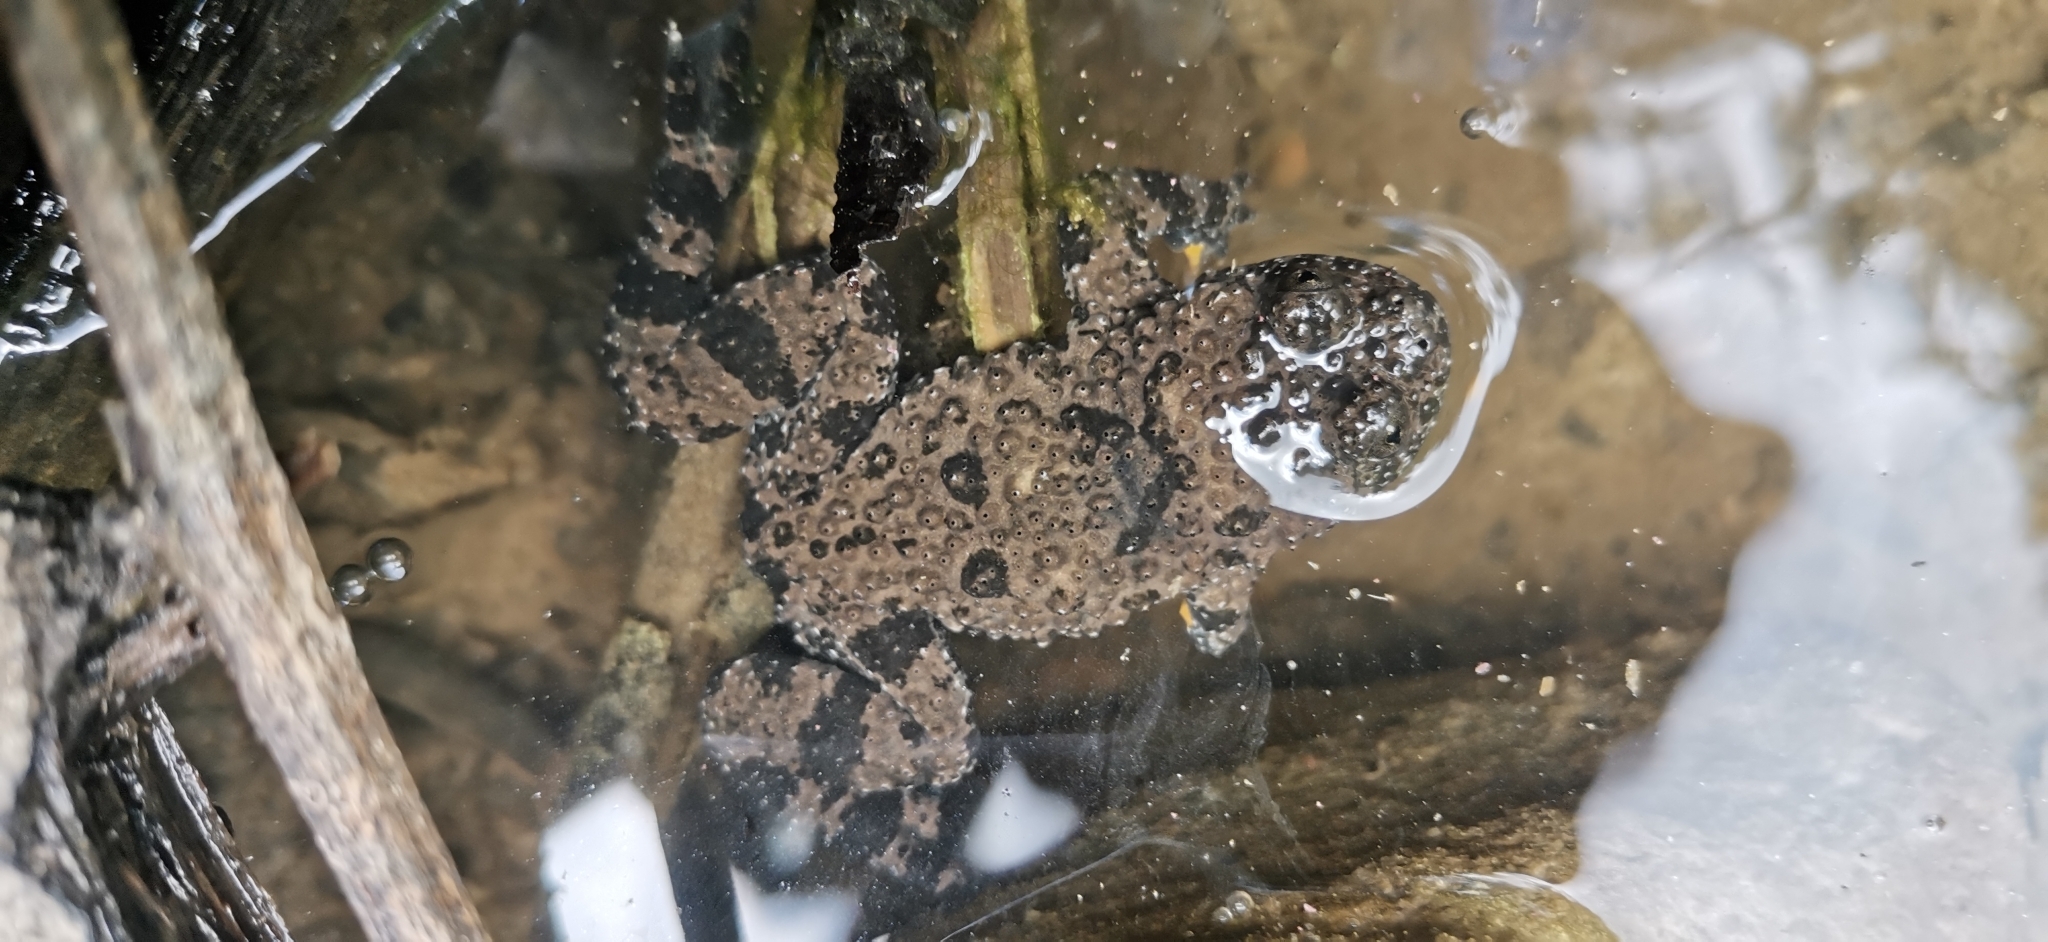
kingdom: Animalia
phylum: Chordata
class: Amphibia
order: Anura
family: Bombinatoridae
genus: Bombina
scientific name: Bombina variegata
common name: Yellow-bellied toad
